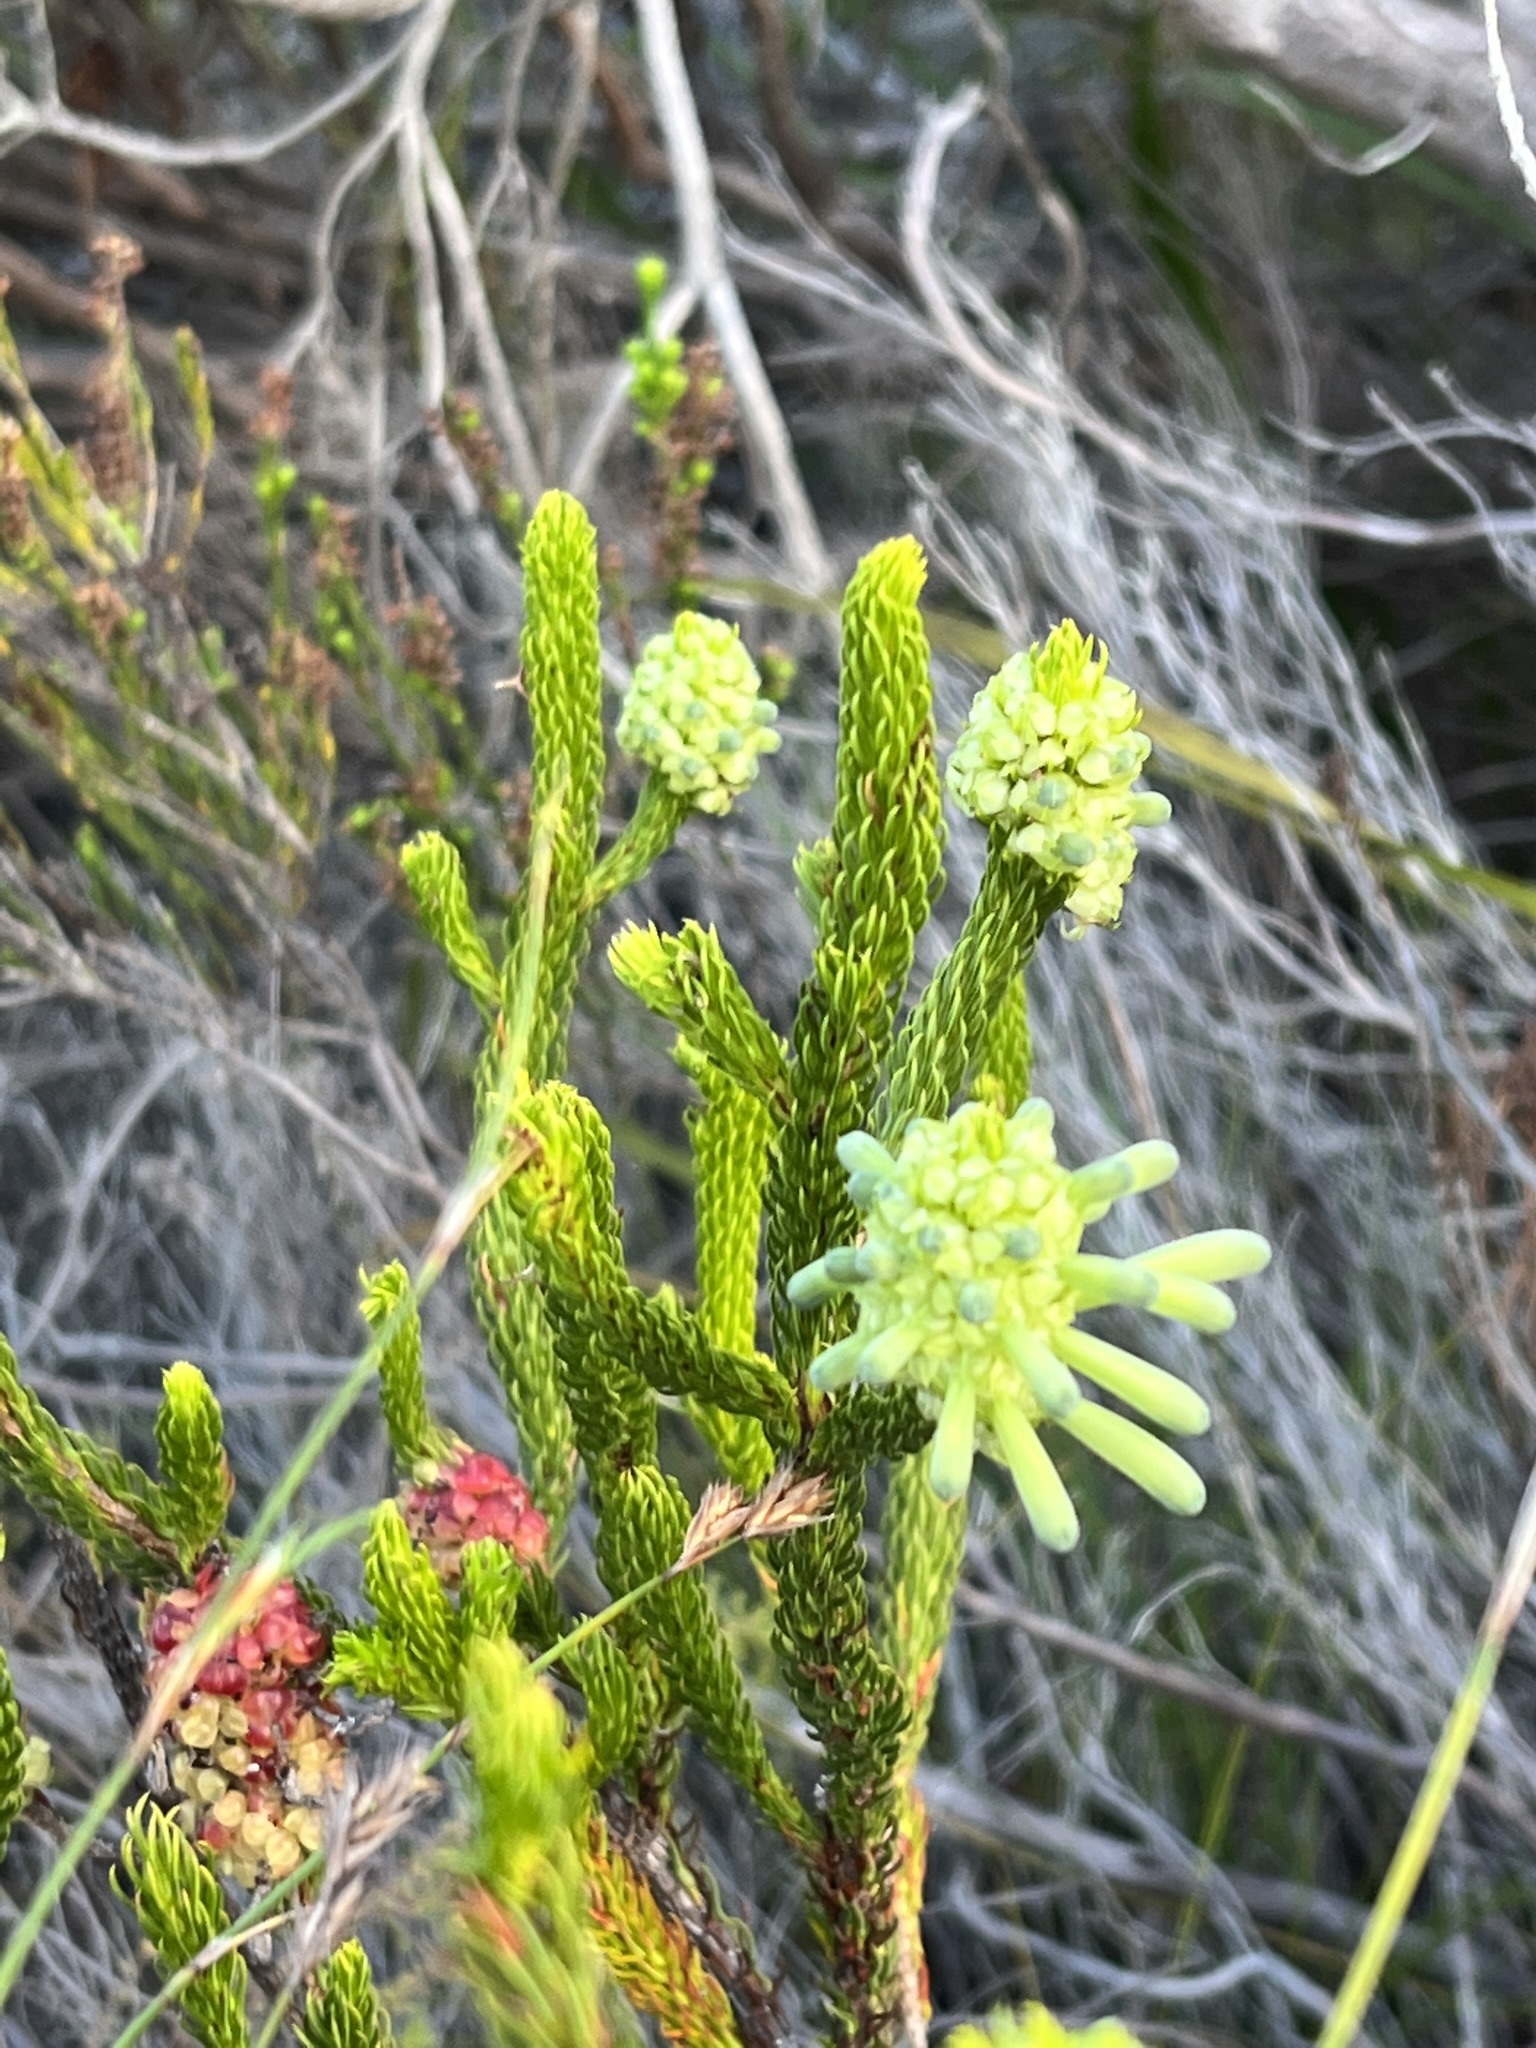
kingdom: Plantae
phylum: Tracheophyta
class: Magnoliopsida
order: Ericales
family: Ericaceae
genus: Erica
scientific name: Erica sessiliflora
